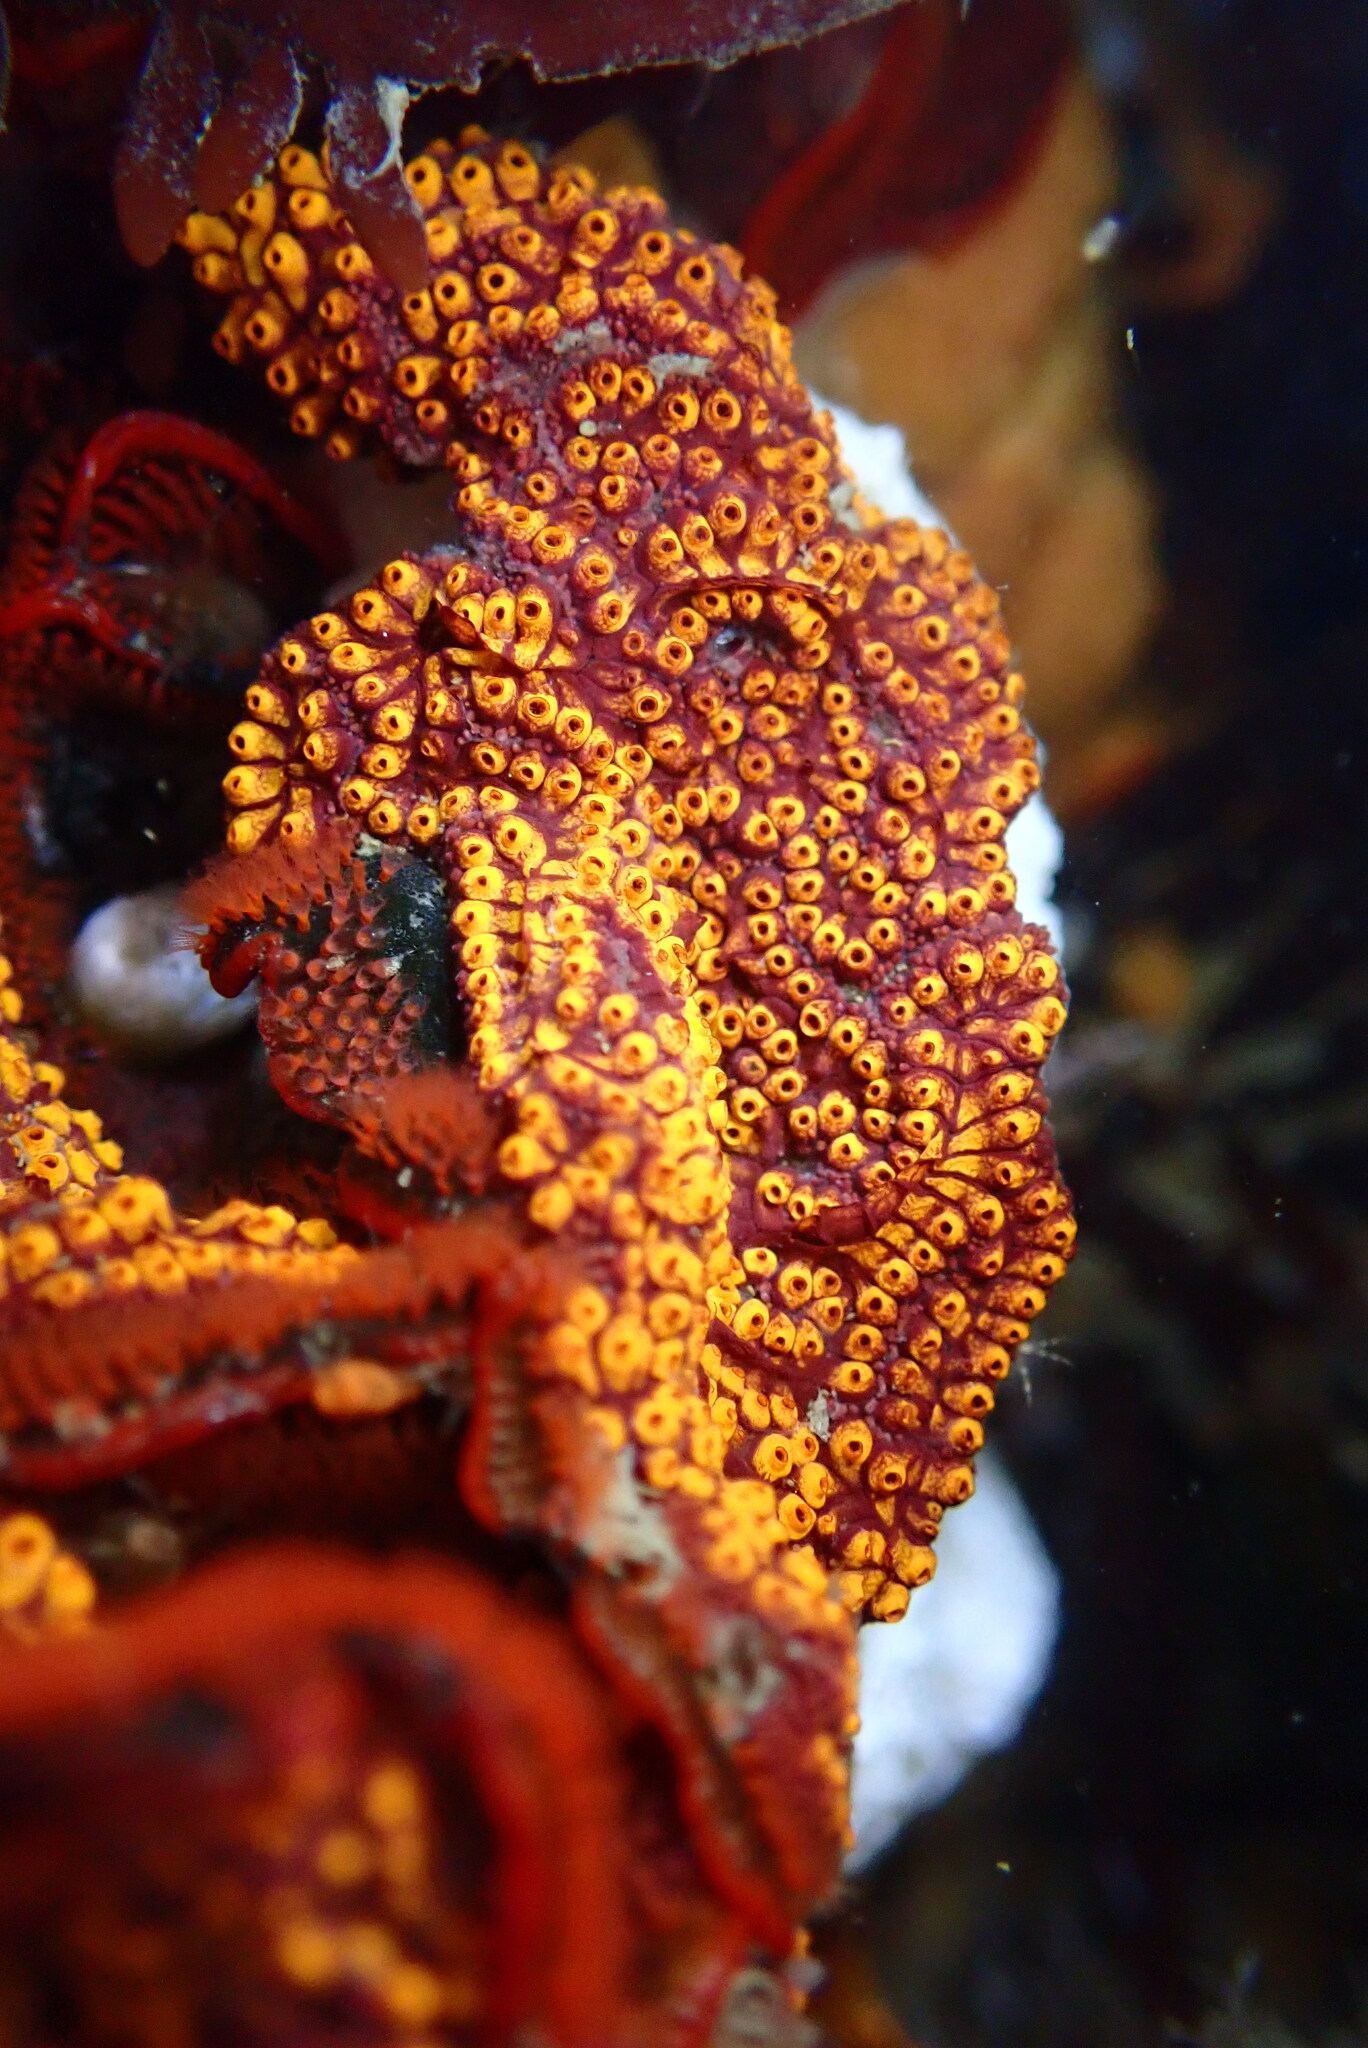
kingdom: Animalia
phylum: Chordata
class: Ascidiacea
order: Stolidobranchia
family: Styelidae
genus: Botrylloides
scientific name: Botrylloides diegensis
